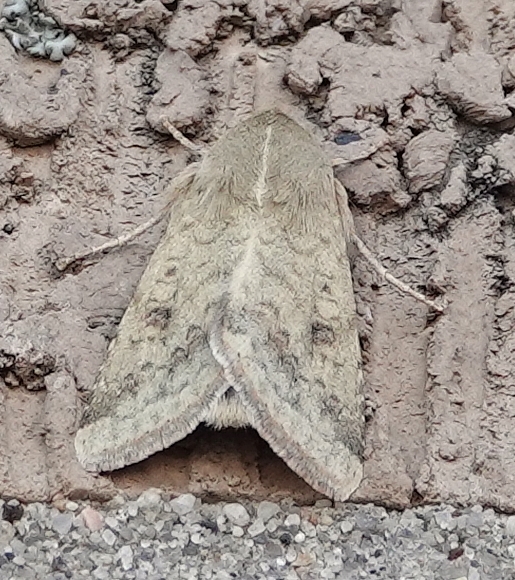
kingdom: Animalia
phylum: Arthropoda
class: Insecta
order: Lepidoptera
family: Noctuidae
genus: Helicoverpa
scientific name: Helicoverpa zea
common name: Bollworm
